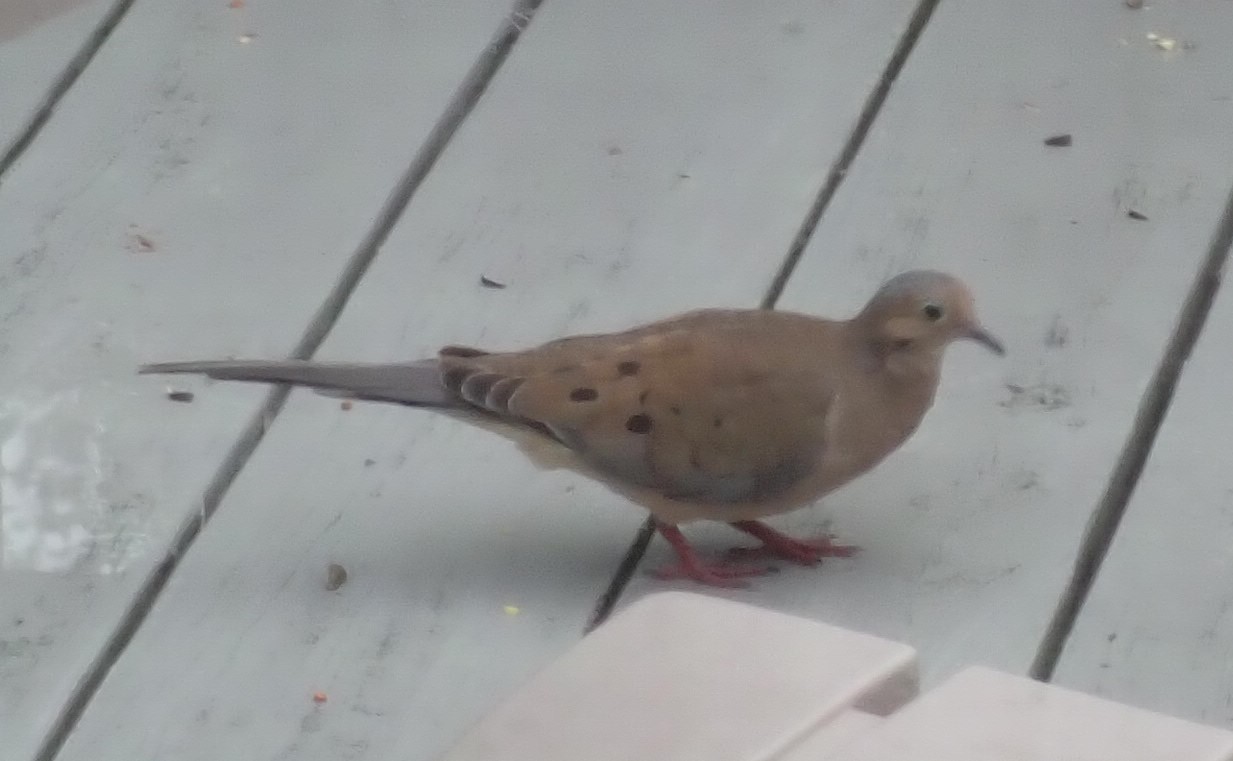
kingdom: Animalia
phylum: Chordata
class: Aves
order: Columbiformes
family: Columbidae
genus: Zenaida
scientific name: Zenaida macroura
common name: Mourning dove
